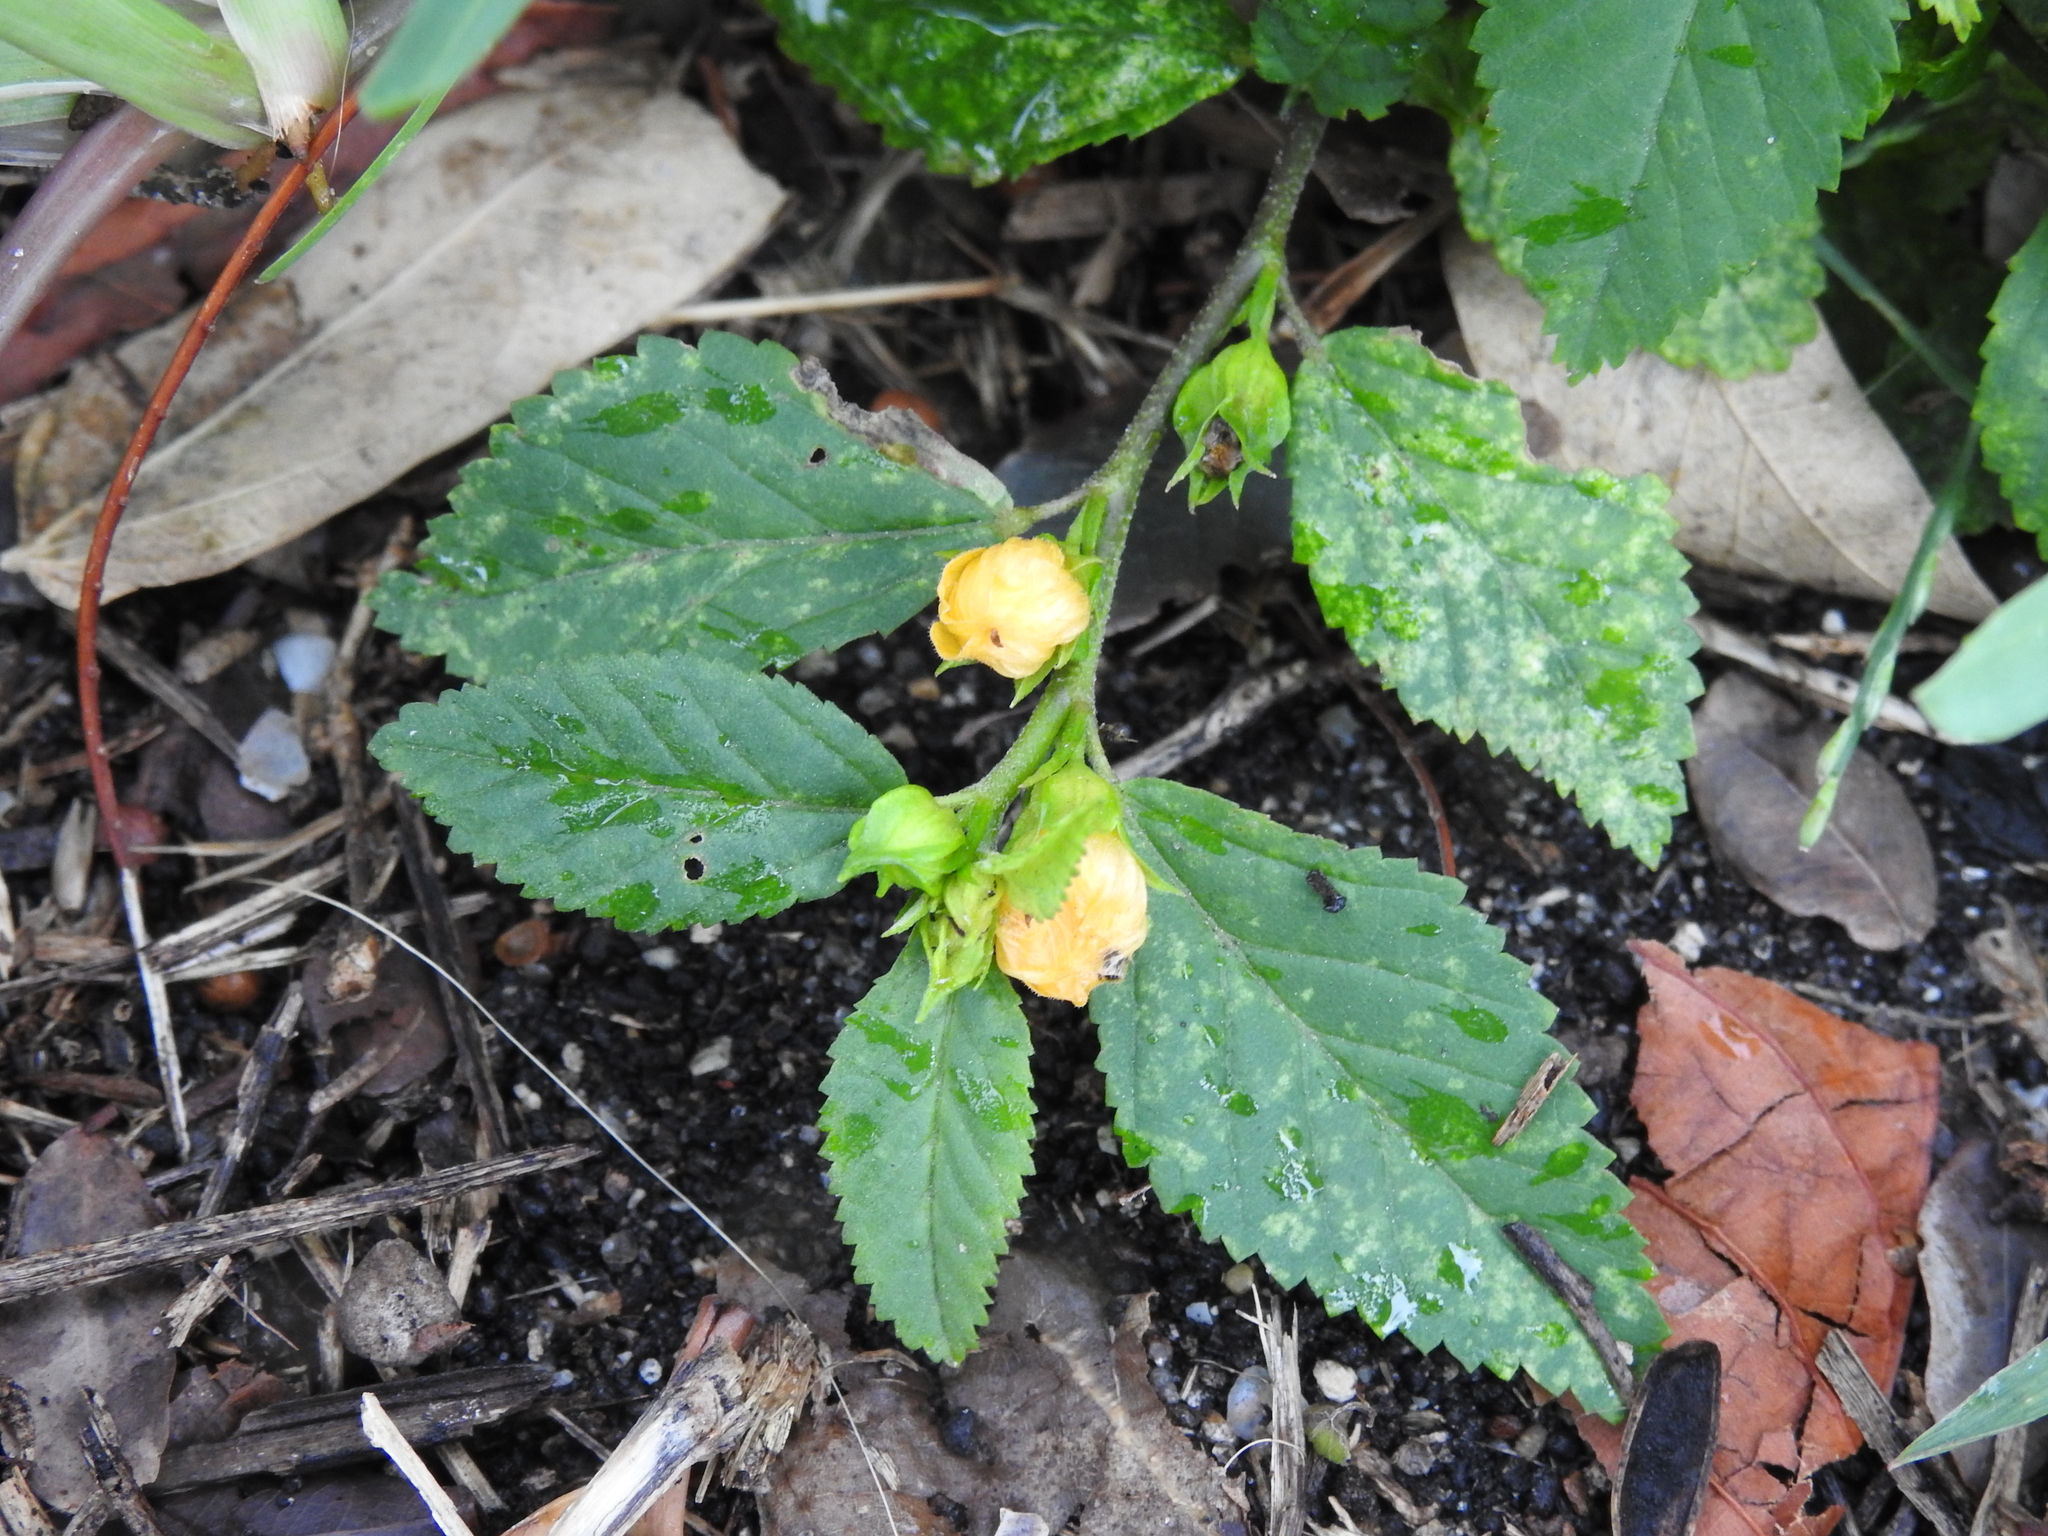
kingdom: Plantae
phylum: Tracheophyta
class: Magnoliopsida
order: Malvales
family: Malvaceae
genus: Sida
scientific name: Sida ulmifolia
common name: Broom weed
